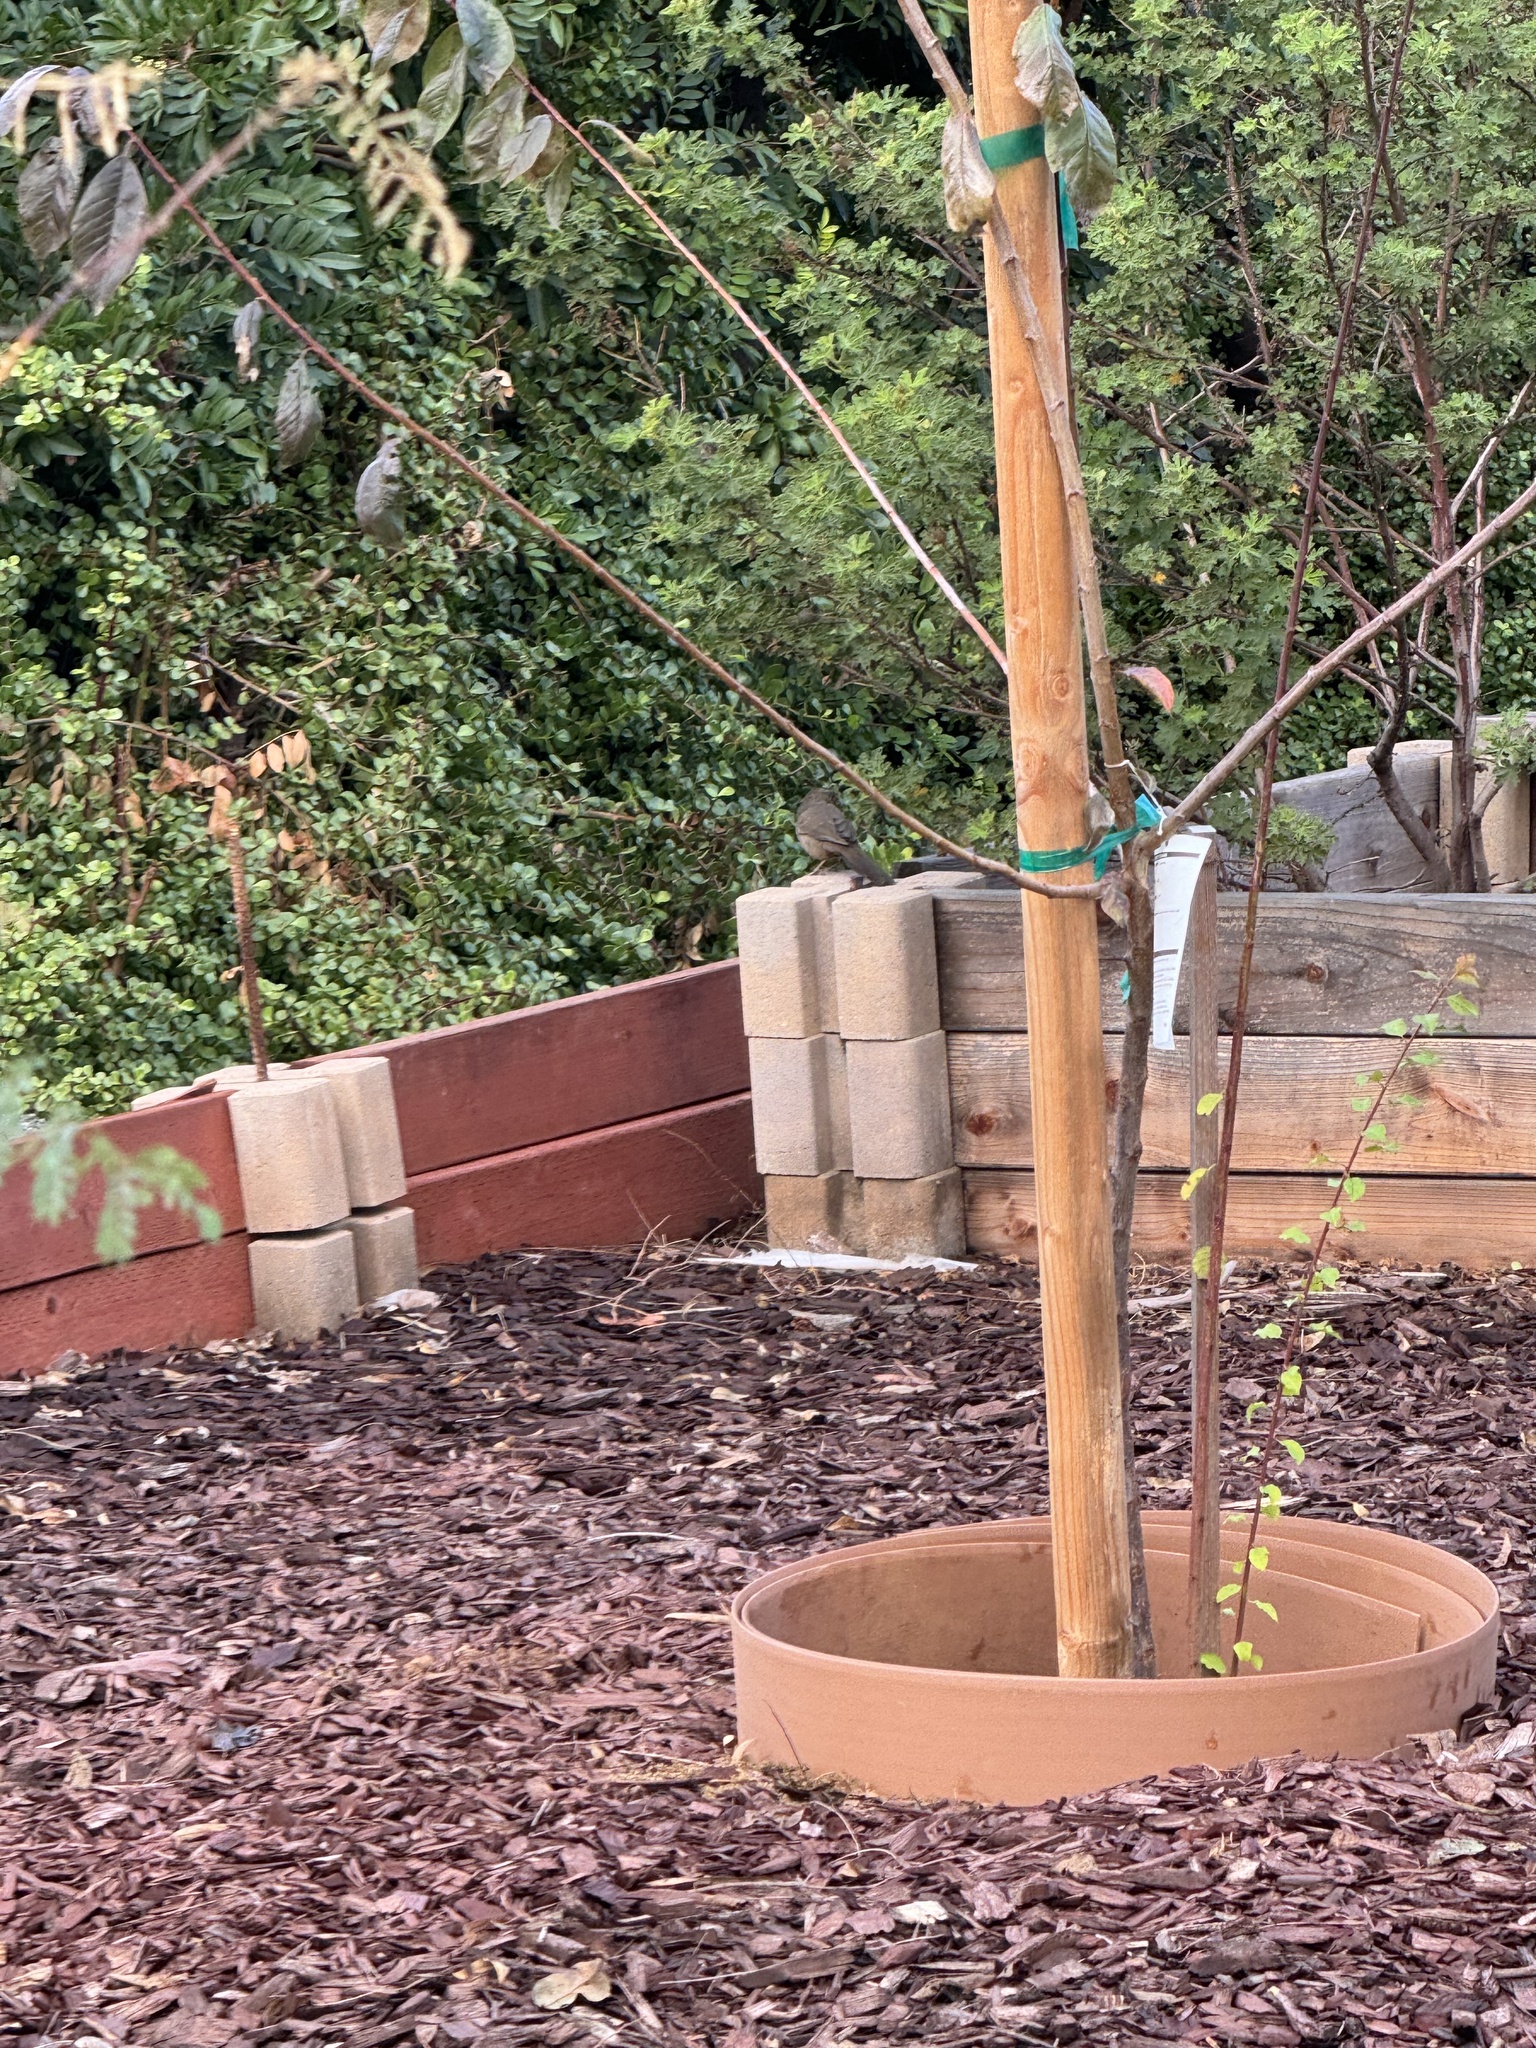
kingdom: Animalia
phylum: Chordata
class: Aves
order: Passeriformes
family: Passerellidae
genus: Melozone
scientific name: Melozone crissalis
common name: California towhee
